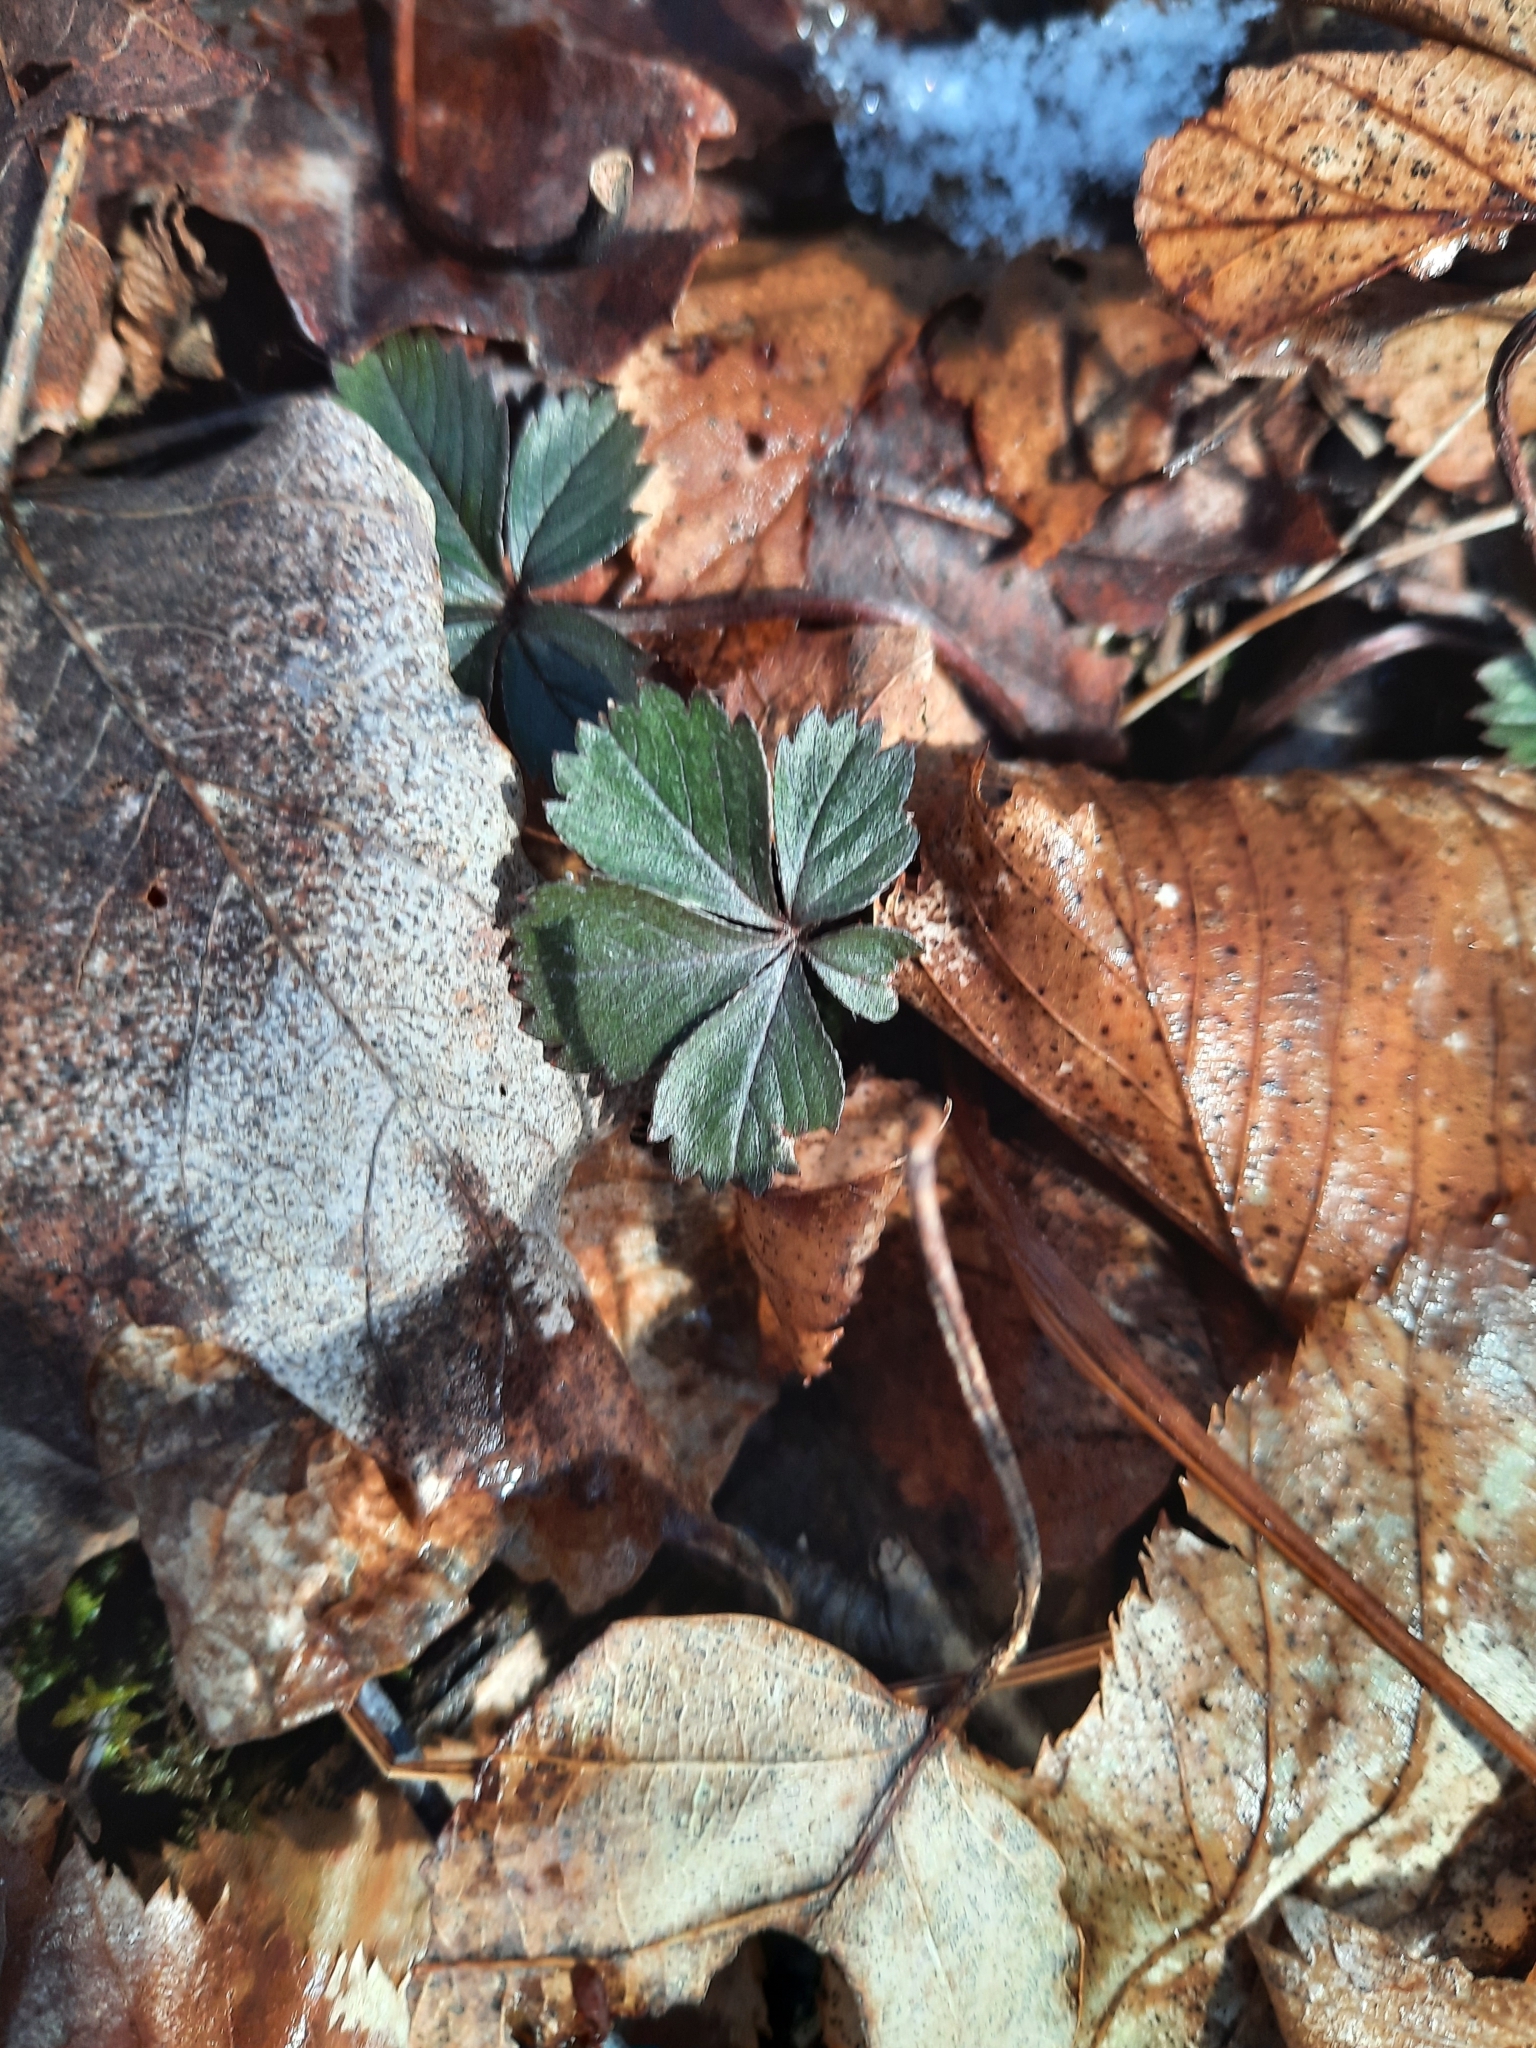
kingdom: Plantae
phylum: Tracheophyta
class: Magnoliopsida
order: Rosales
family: Rosaceae
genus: Potentilla
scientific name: Potentilla canadensis
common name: Canada cinquefoil
